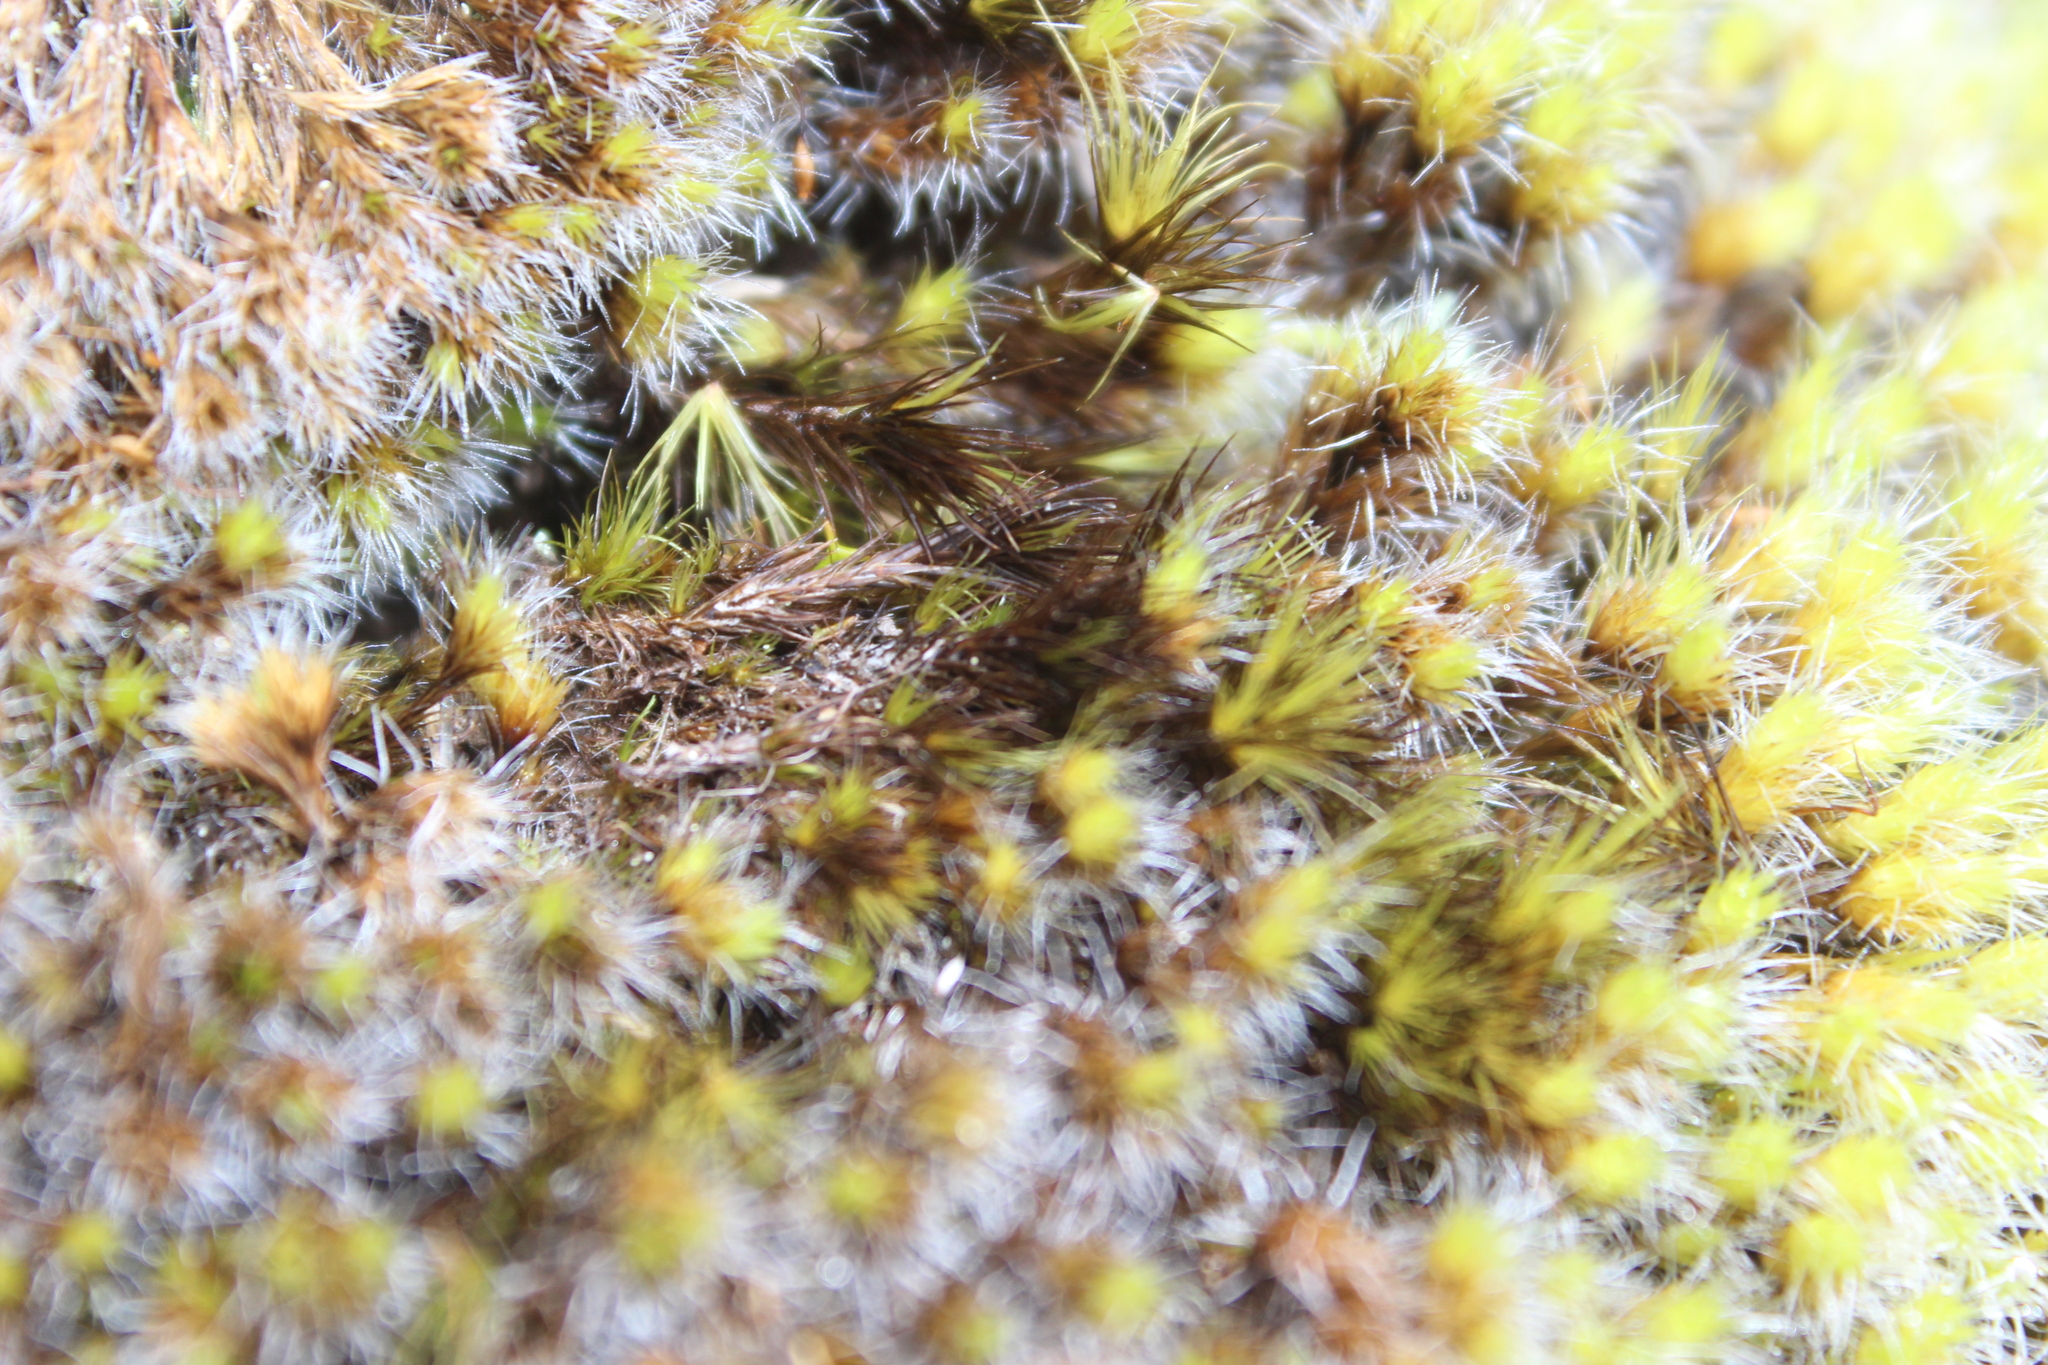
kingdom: Plantae
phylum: Bryophyta
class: Bryopsida
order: Dicranales
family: Leucobryaceae
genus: Campylopus
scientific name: Campylopus clavatus
